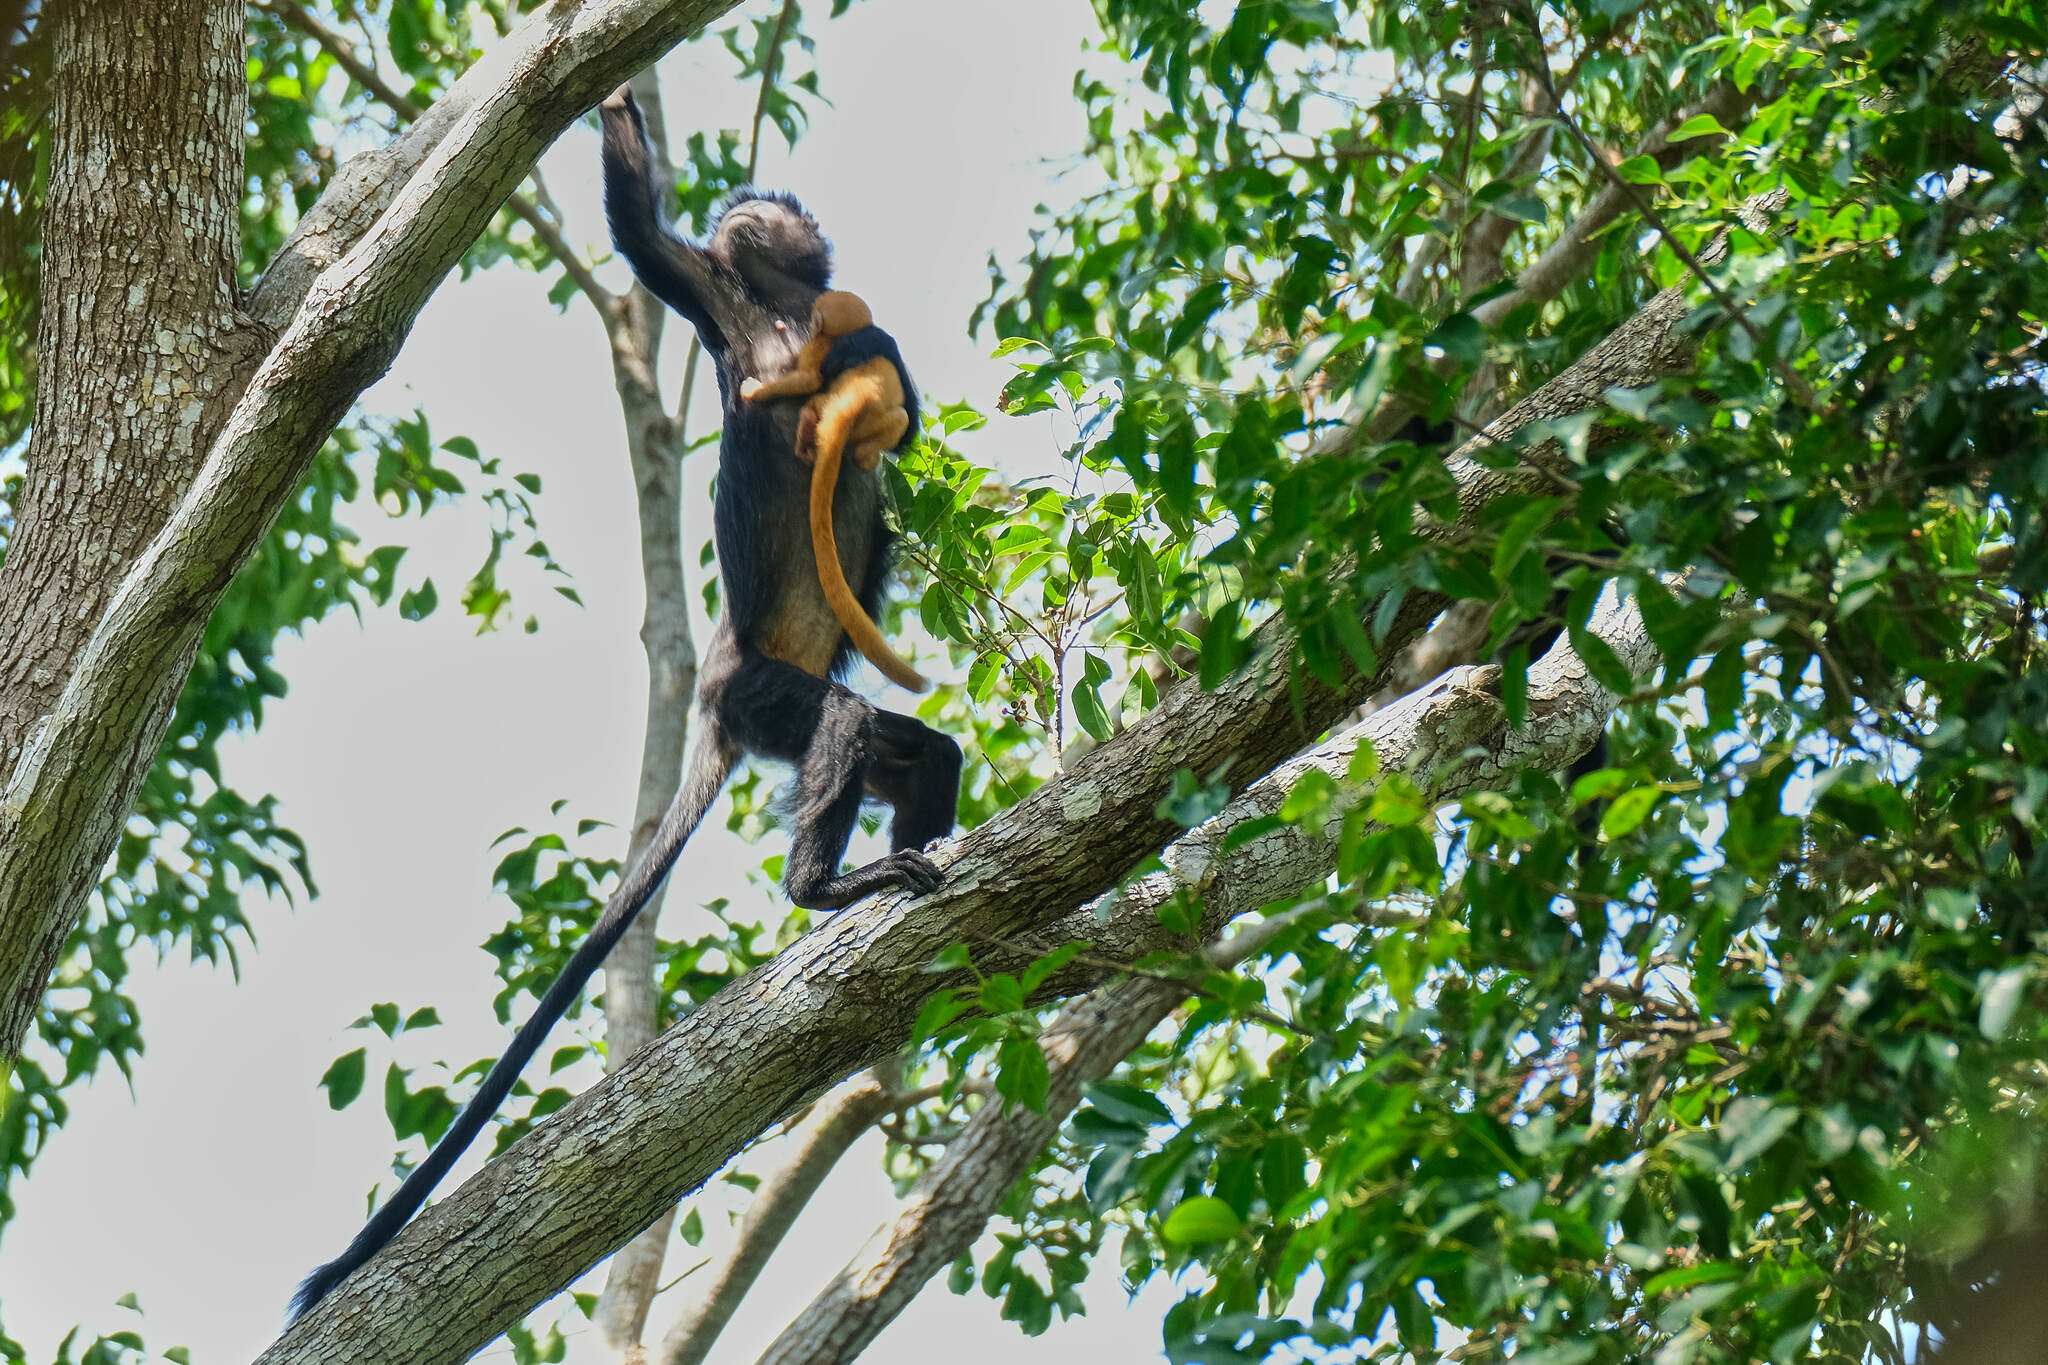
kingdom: Animalia
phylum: Chordata
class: Mammalia
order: Primates
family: Cercopithecidae
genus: Trachypithecus
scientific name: Trachypithecus auratus
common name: Javan lutung
